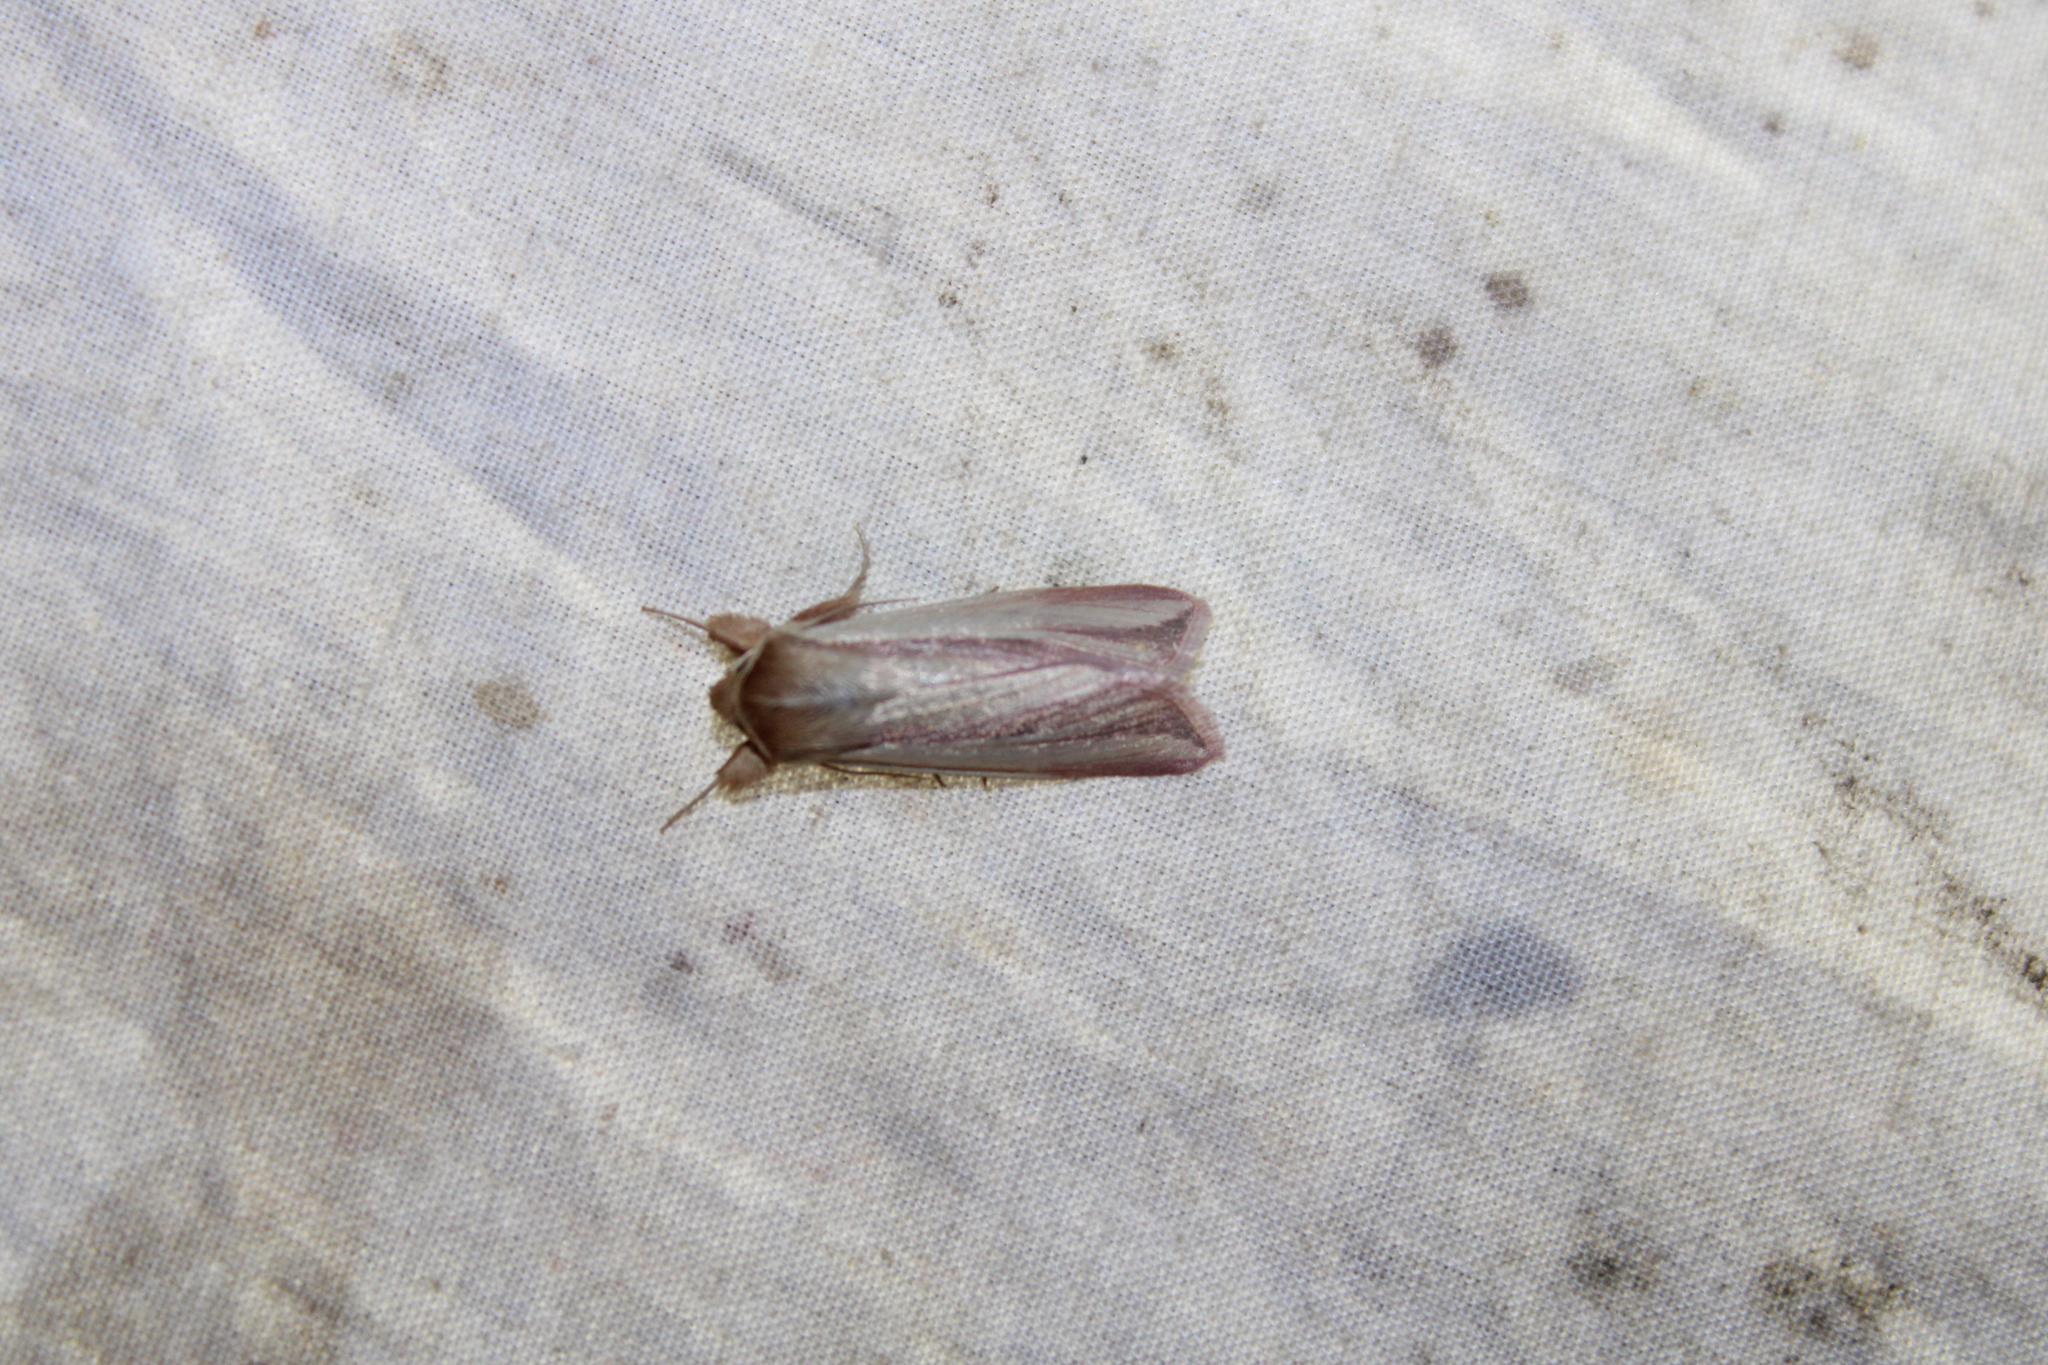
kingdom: Animalia
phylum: Arthropoda
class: Insecta
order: Lepidoptera
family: Noctuidae
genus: Dargida
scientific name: Dargida rubripennis
